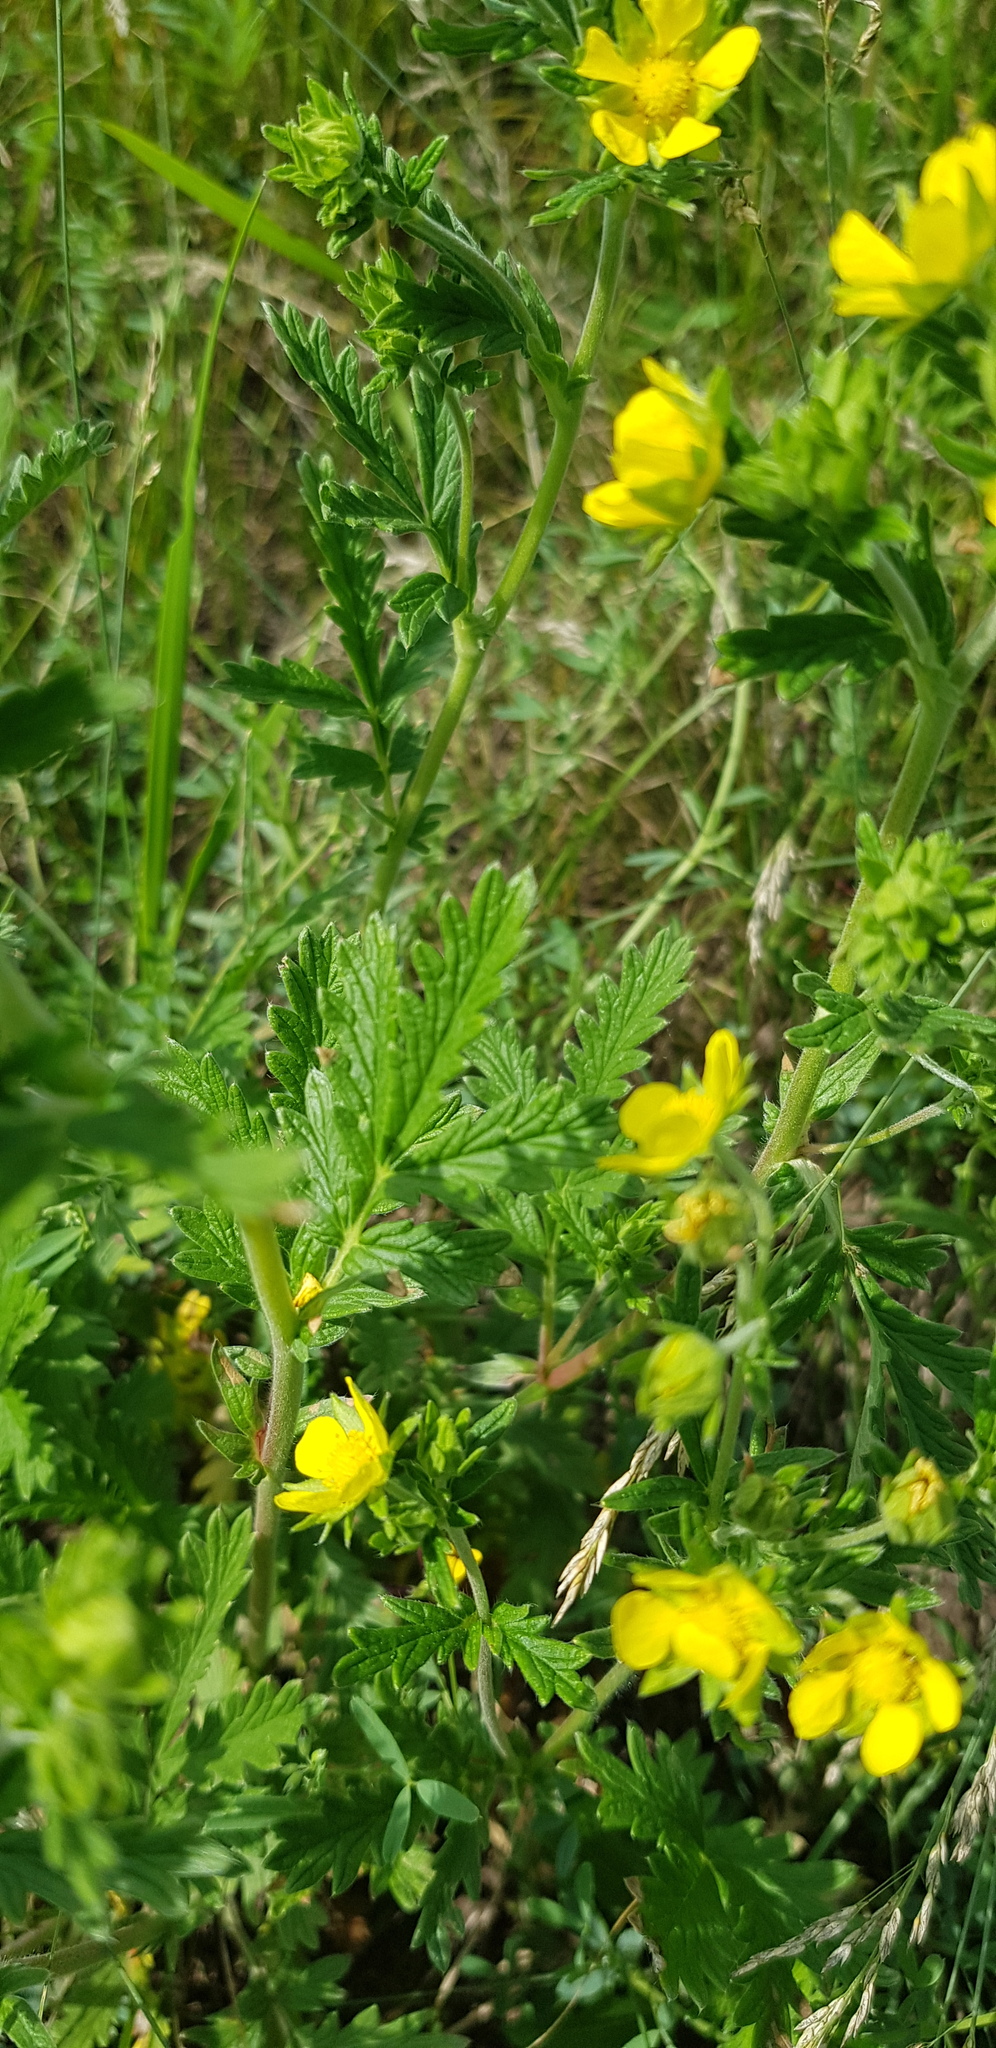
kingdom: Plantae
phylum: Tracheophyta
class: Magnoliopsida
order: Rosales
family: Rosaceae
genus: Potentilla
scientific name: Potentilla tanacetifolia
